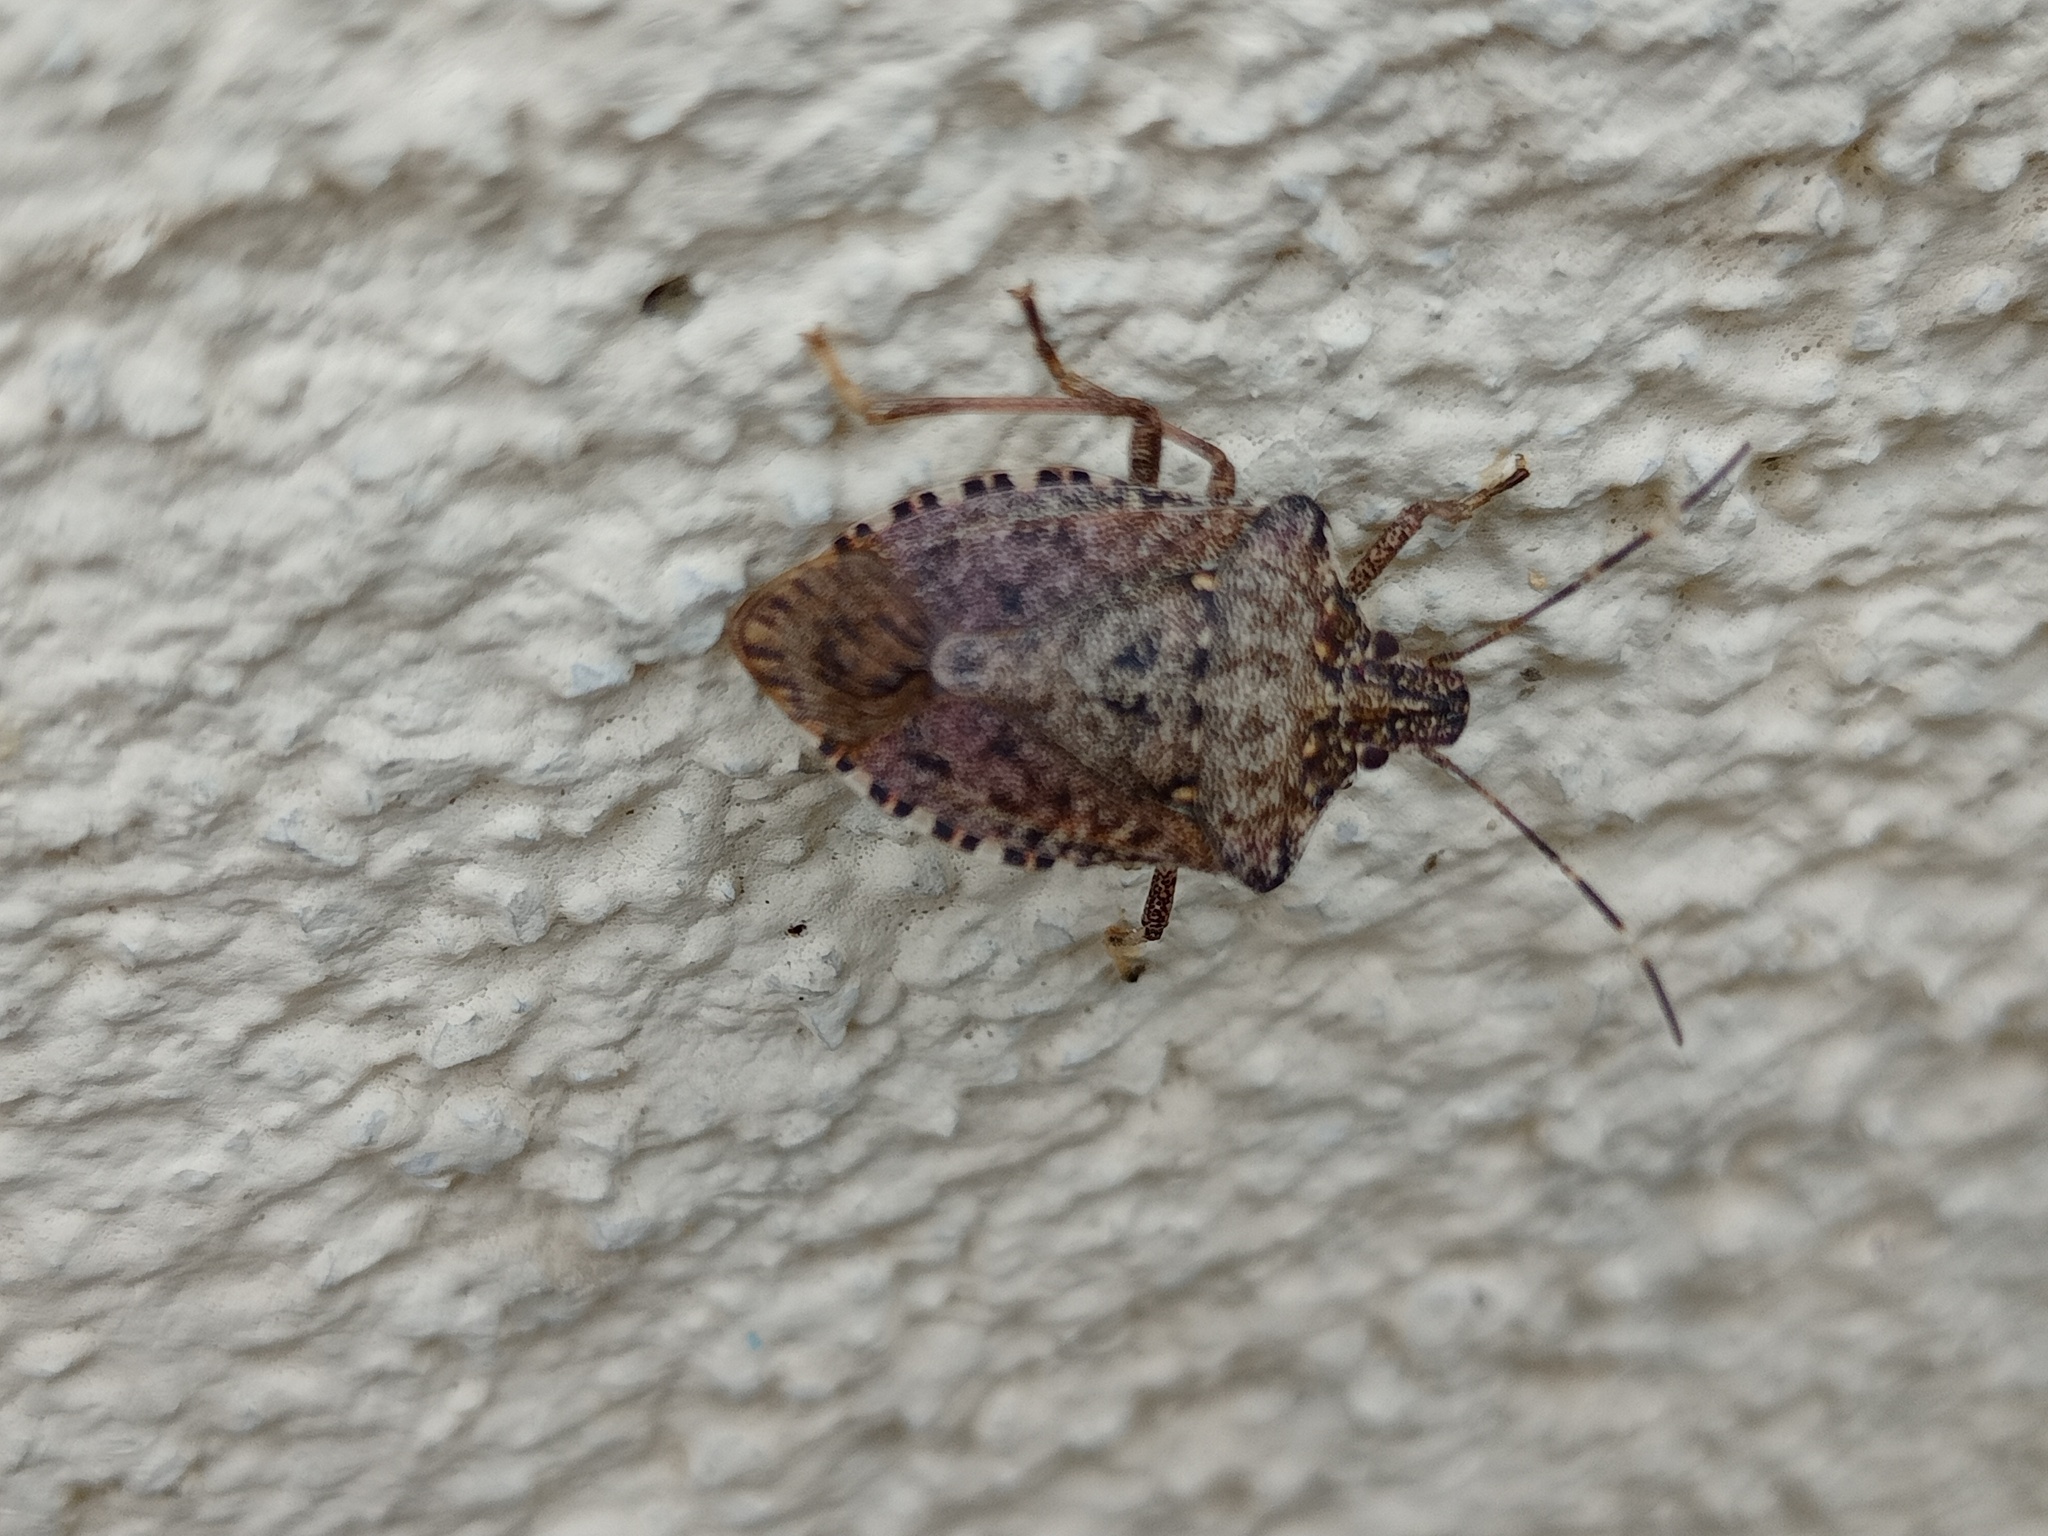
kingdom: Animalia
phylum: Arthropoda
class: Insecta
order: Hemiptera
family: Pentatomidae
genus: Halyomorpha
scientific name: Halyomorpha halys
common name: Brown marmorated stink bug
